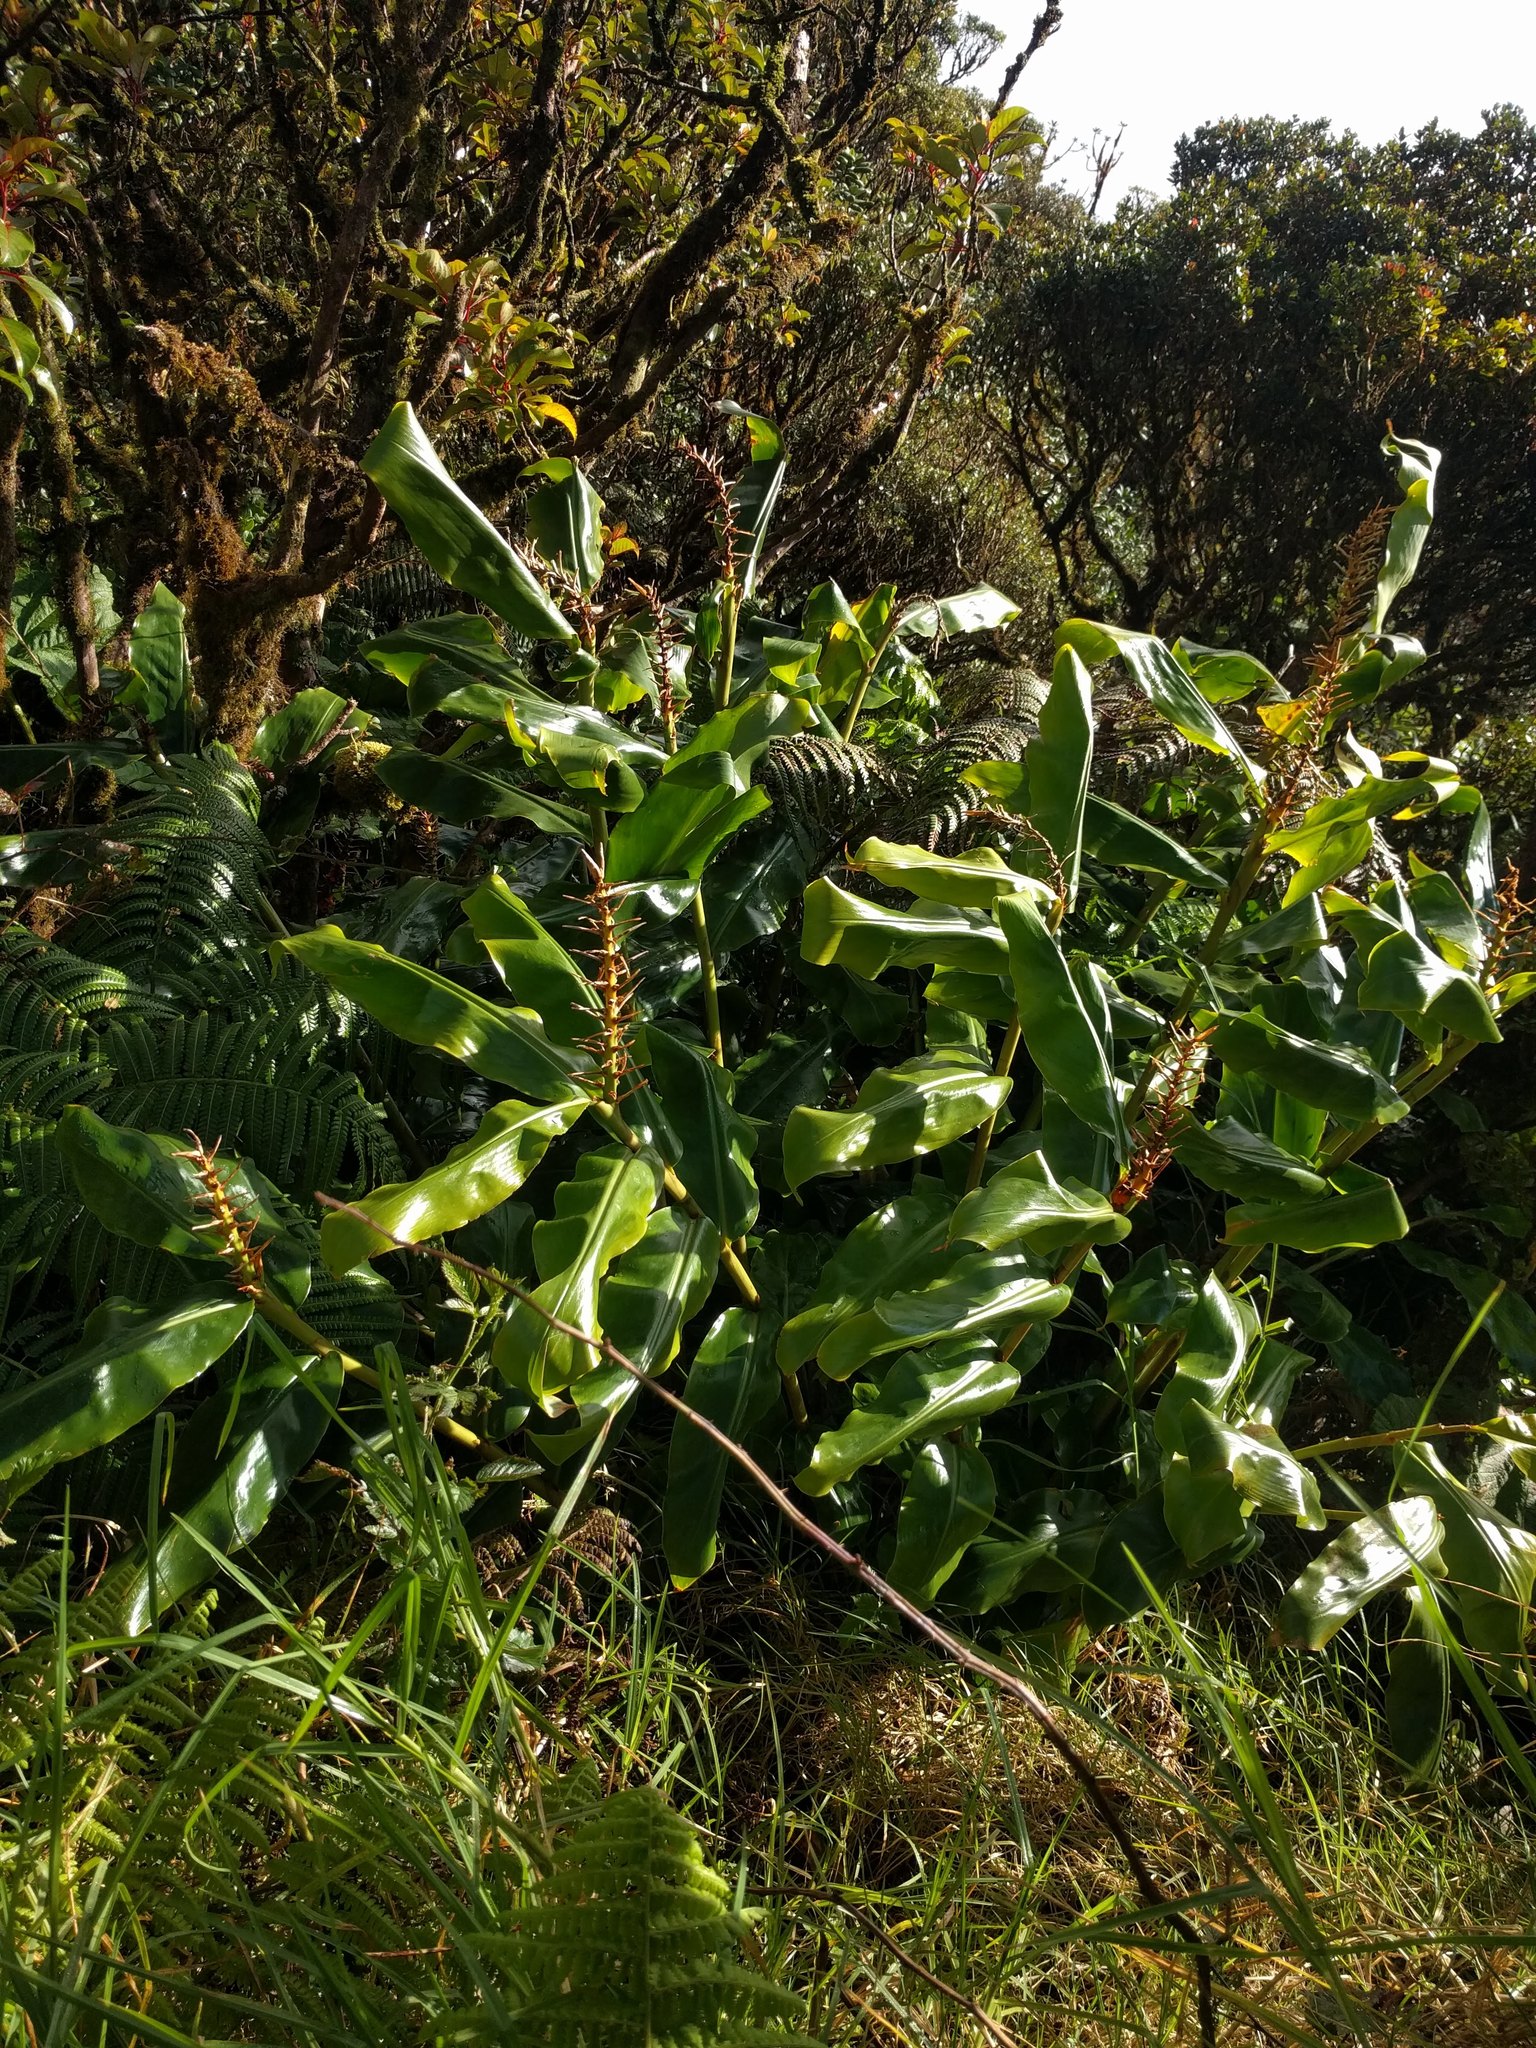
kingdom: Plantae
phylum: Tracheophyta
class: Liliopsida
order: Zingiberales
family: Zingiberaceae
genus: Hedychium
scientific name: Hedychium gardnerianum
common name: Himalayan ginger
